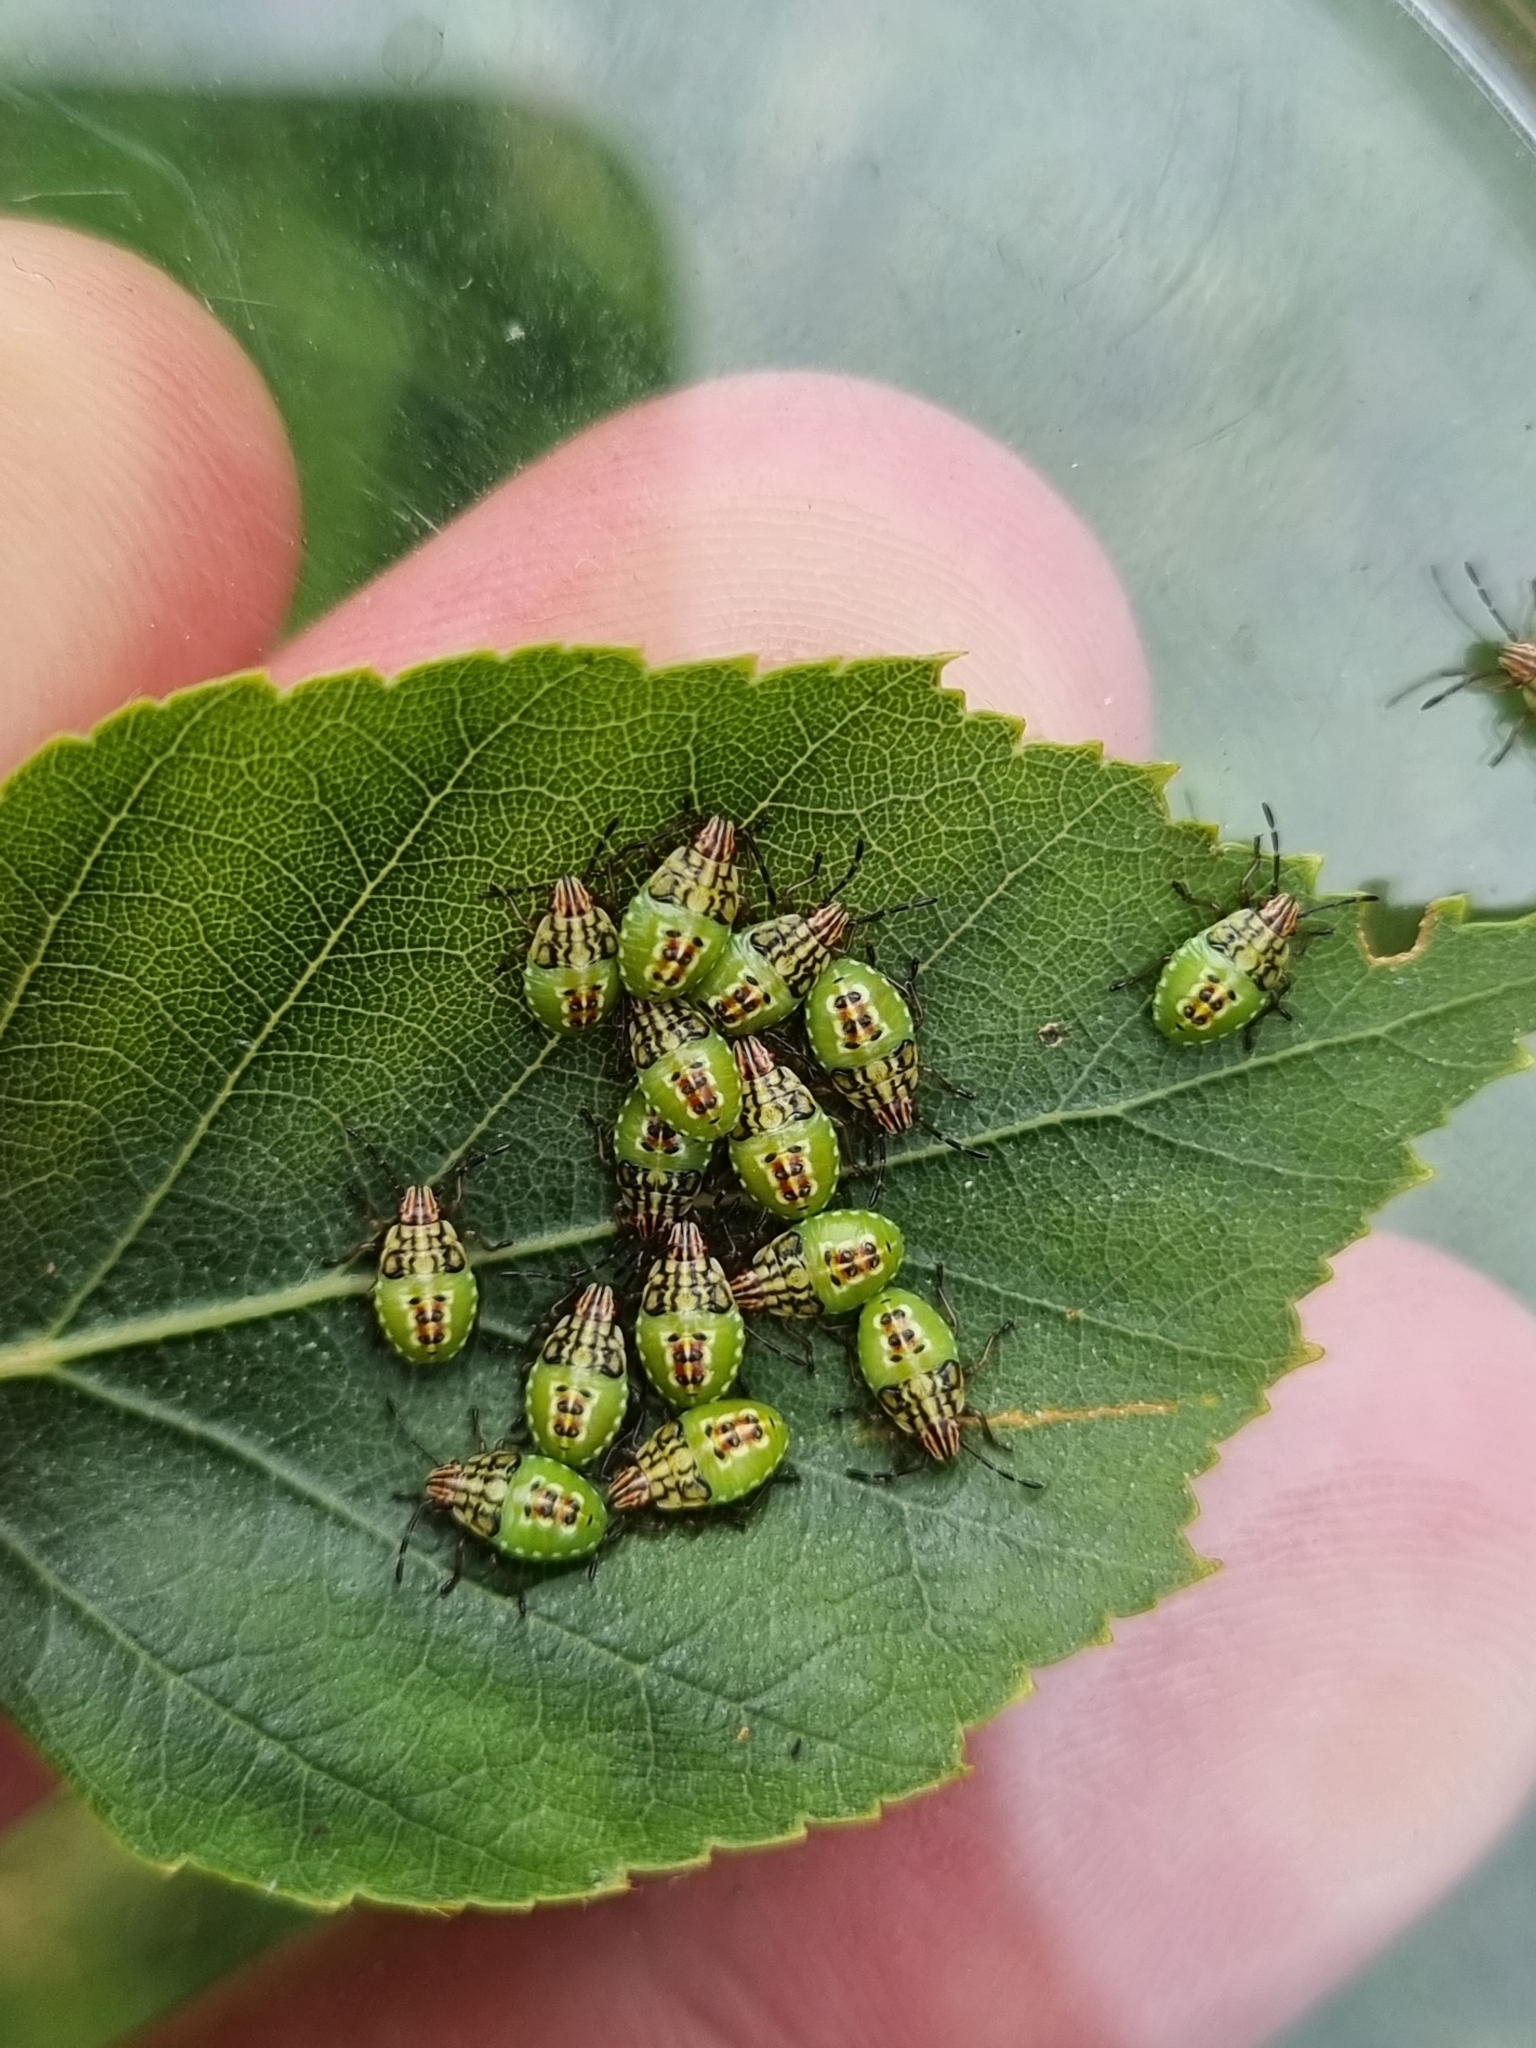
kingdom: Animalia
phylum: Arthropoda
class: Insecta
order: Hemiptera
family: Acanthosomatidae
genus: Elasmucha
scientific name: Elasmucha grisea
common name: Parent bug
